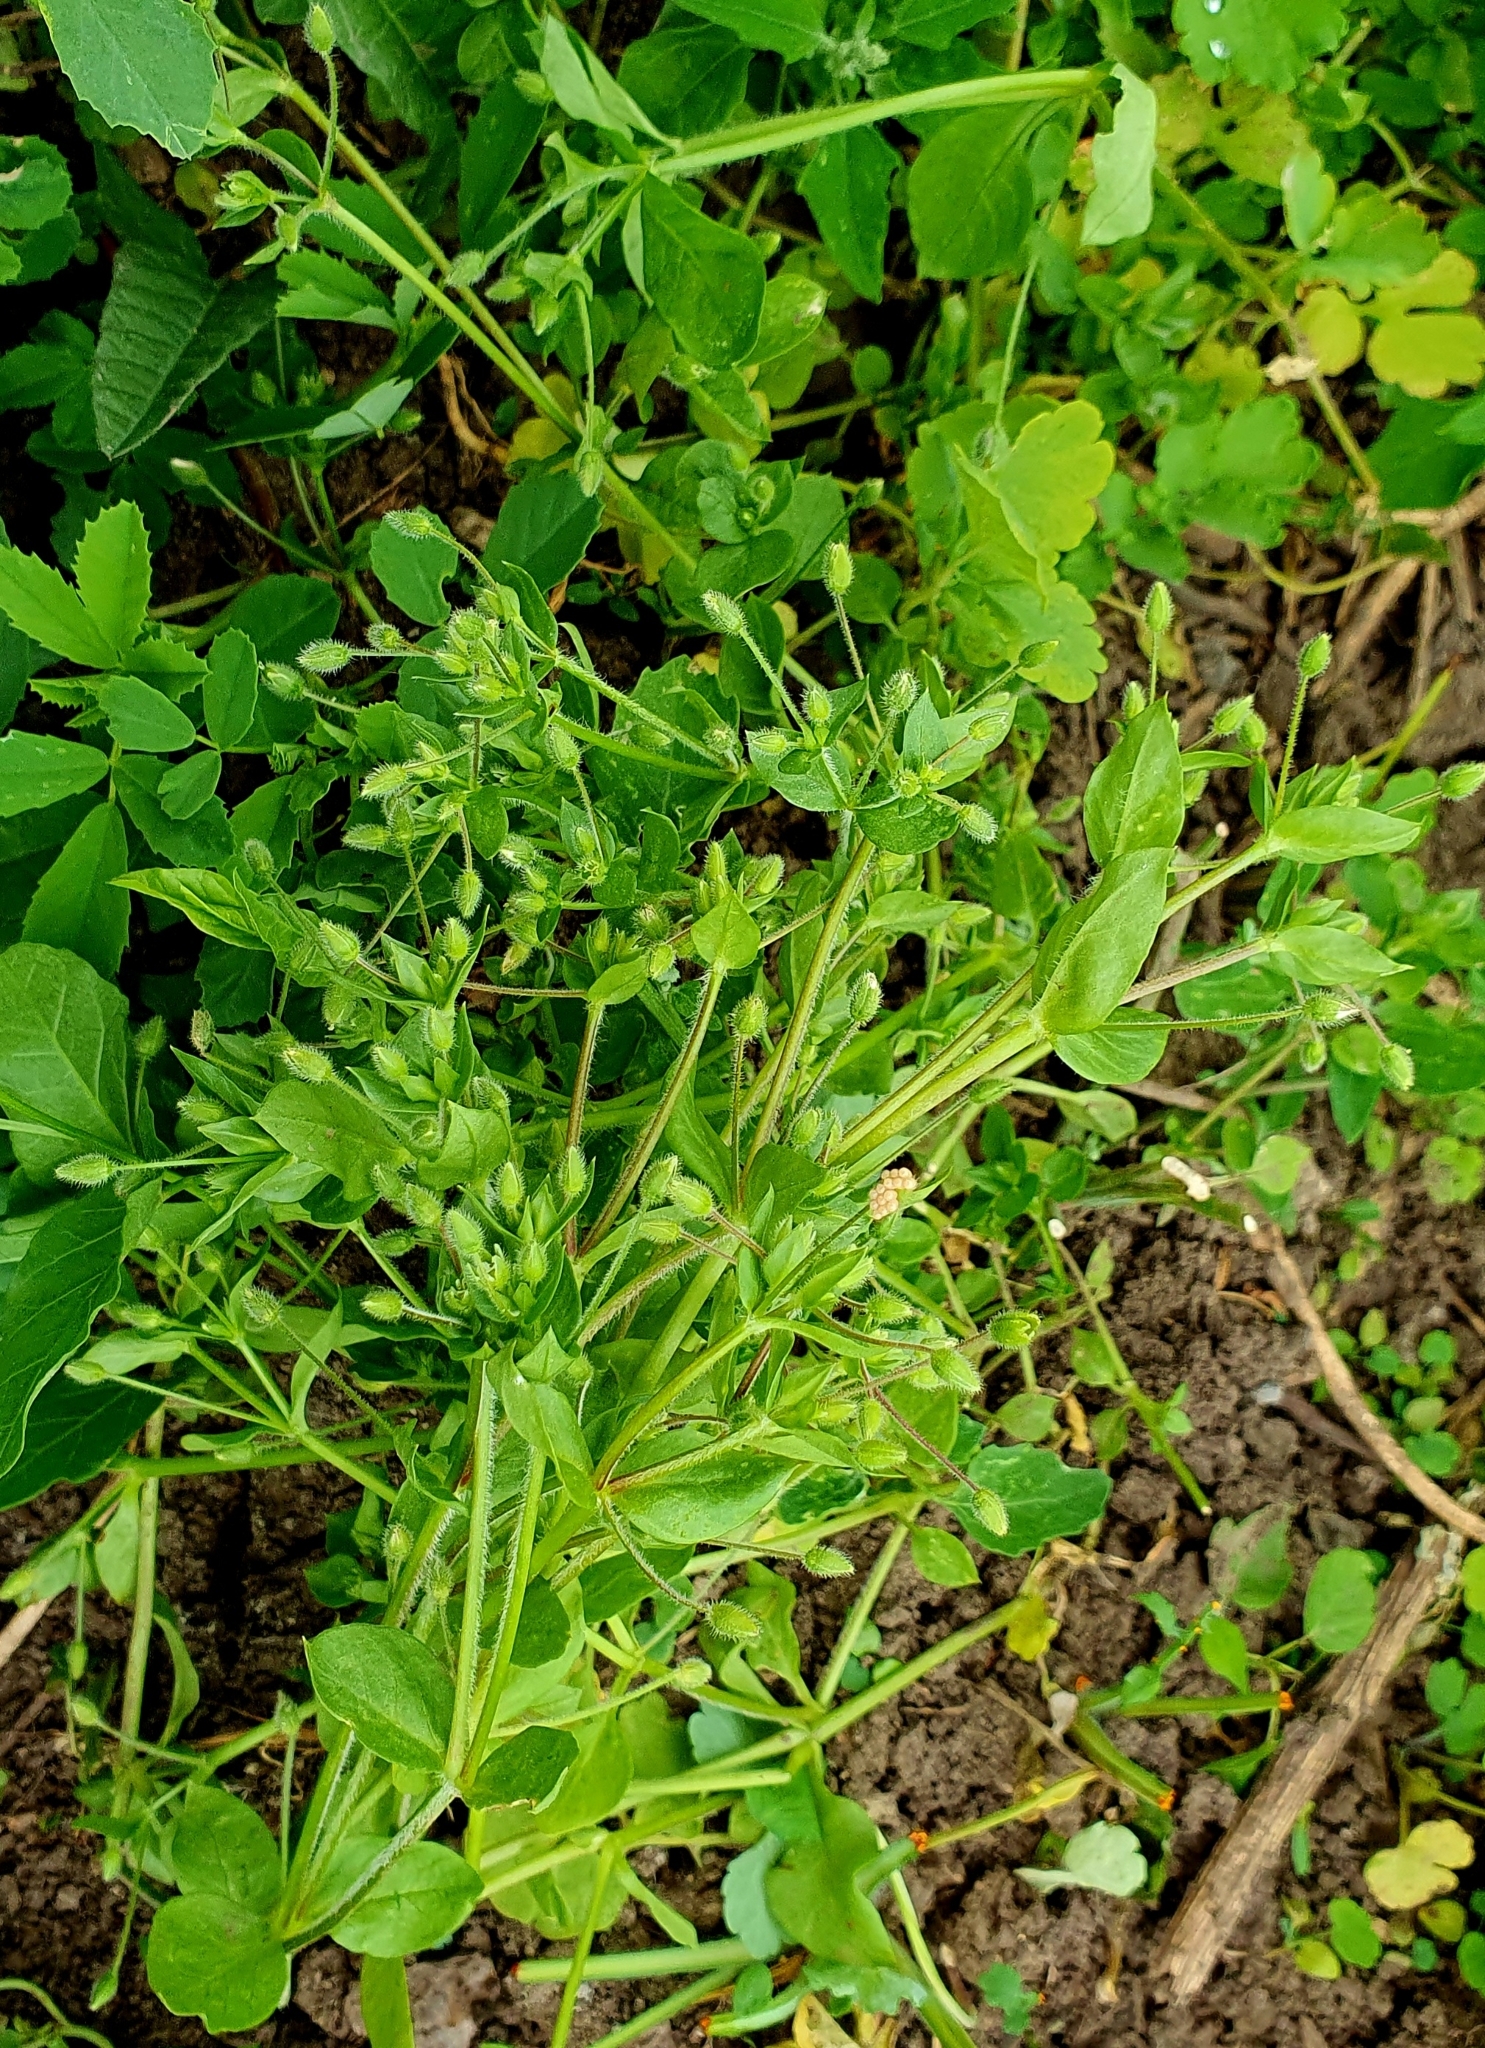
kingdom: Plantae
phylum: Tracheophyta
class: Magnoliopsida
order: Caryophyllales
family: Caryophyllaceae
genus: Stellaria
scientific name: Stellaria media
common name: Common chickweed
